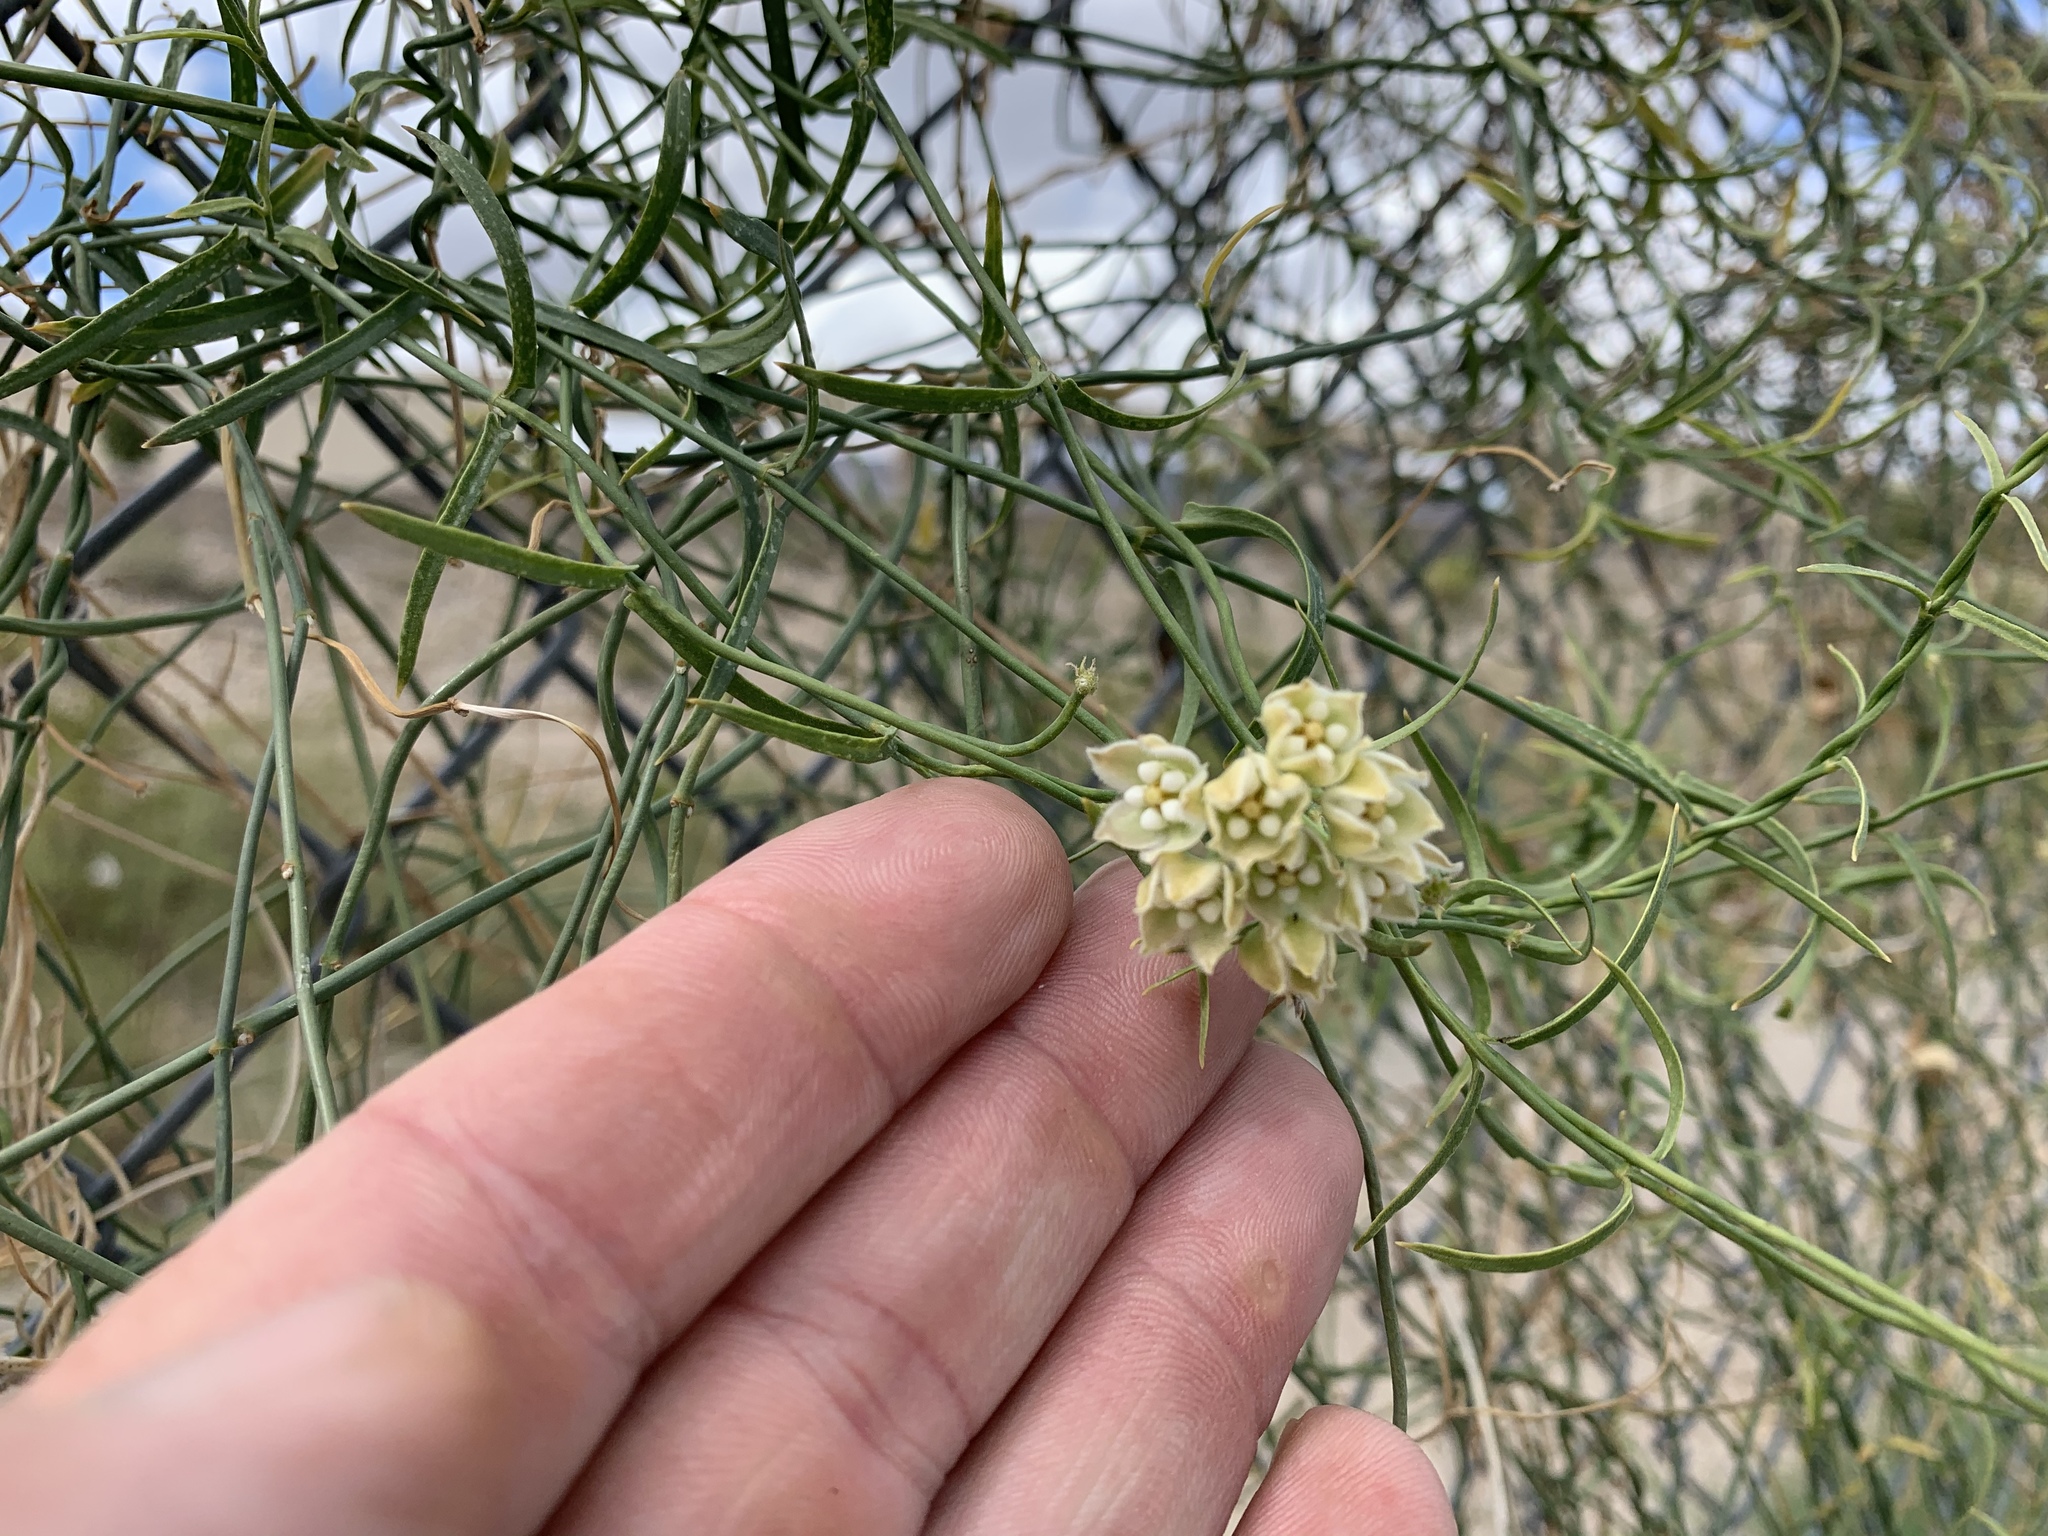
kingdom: Plantae
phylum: Tracheophyta
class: Magnoliopsida
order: Gentianales
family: Apocynaceae
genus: Funastrum
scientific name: Funastrum heterophyllum
